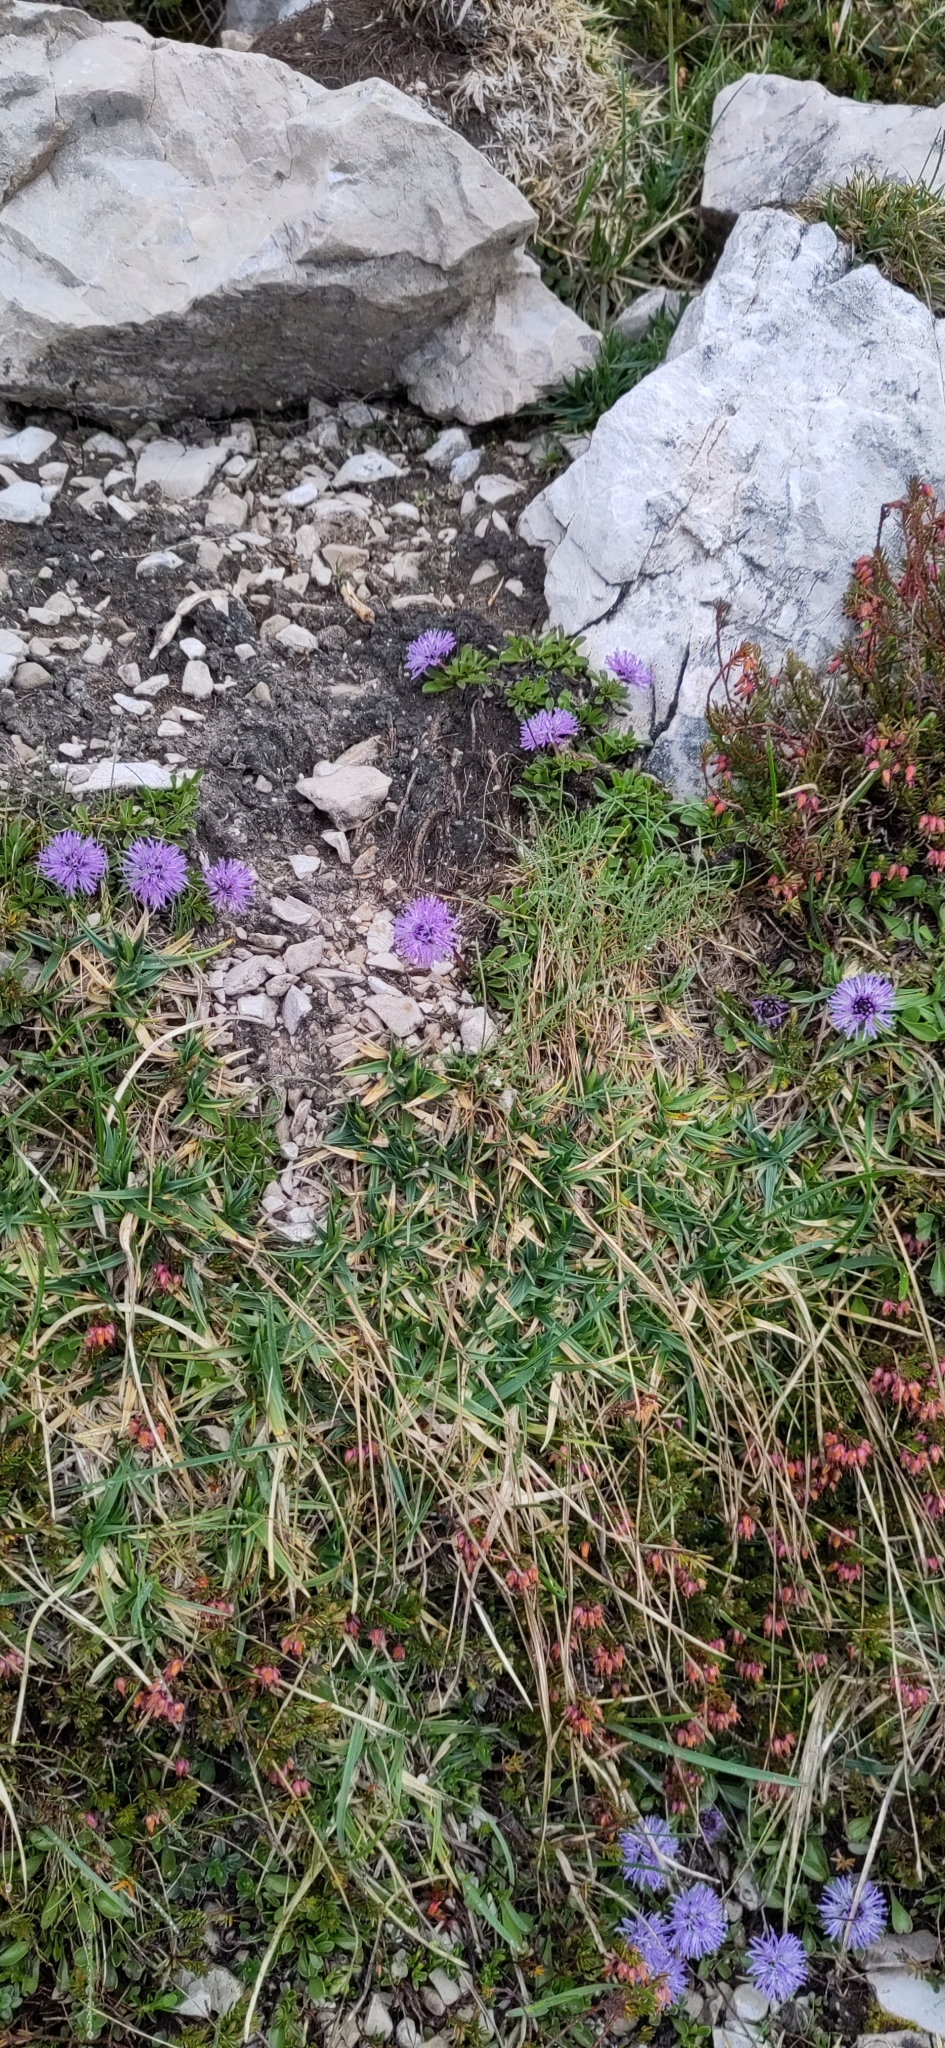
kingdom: Plantae
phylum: Tracheophyta
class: Magnoliopsida
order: Lamiales
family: Plantaginaceae
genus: Globularia
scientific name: Globularia cordifolia
